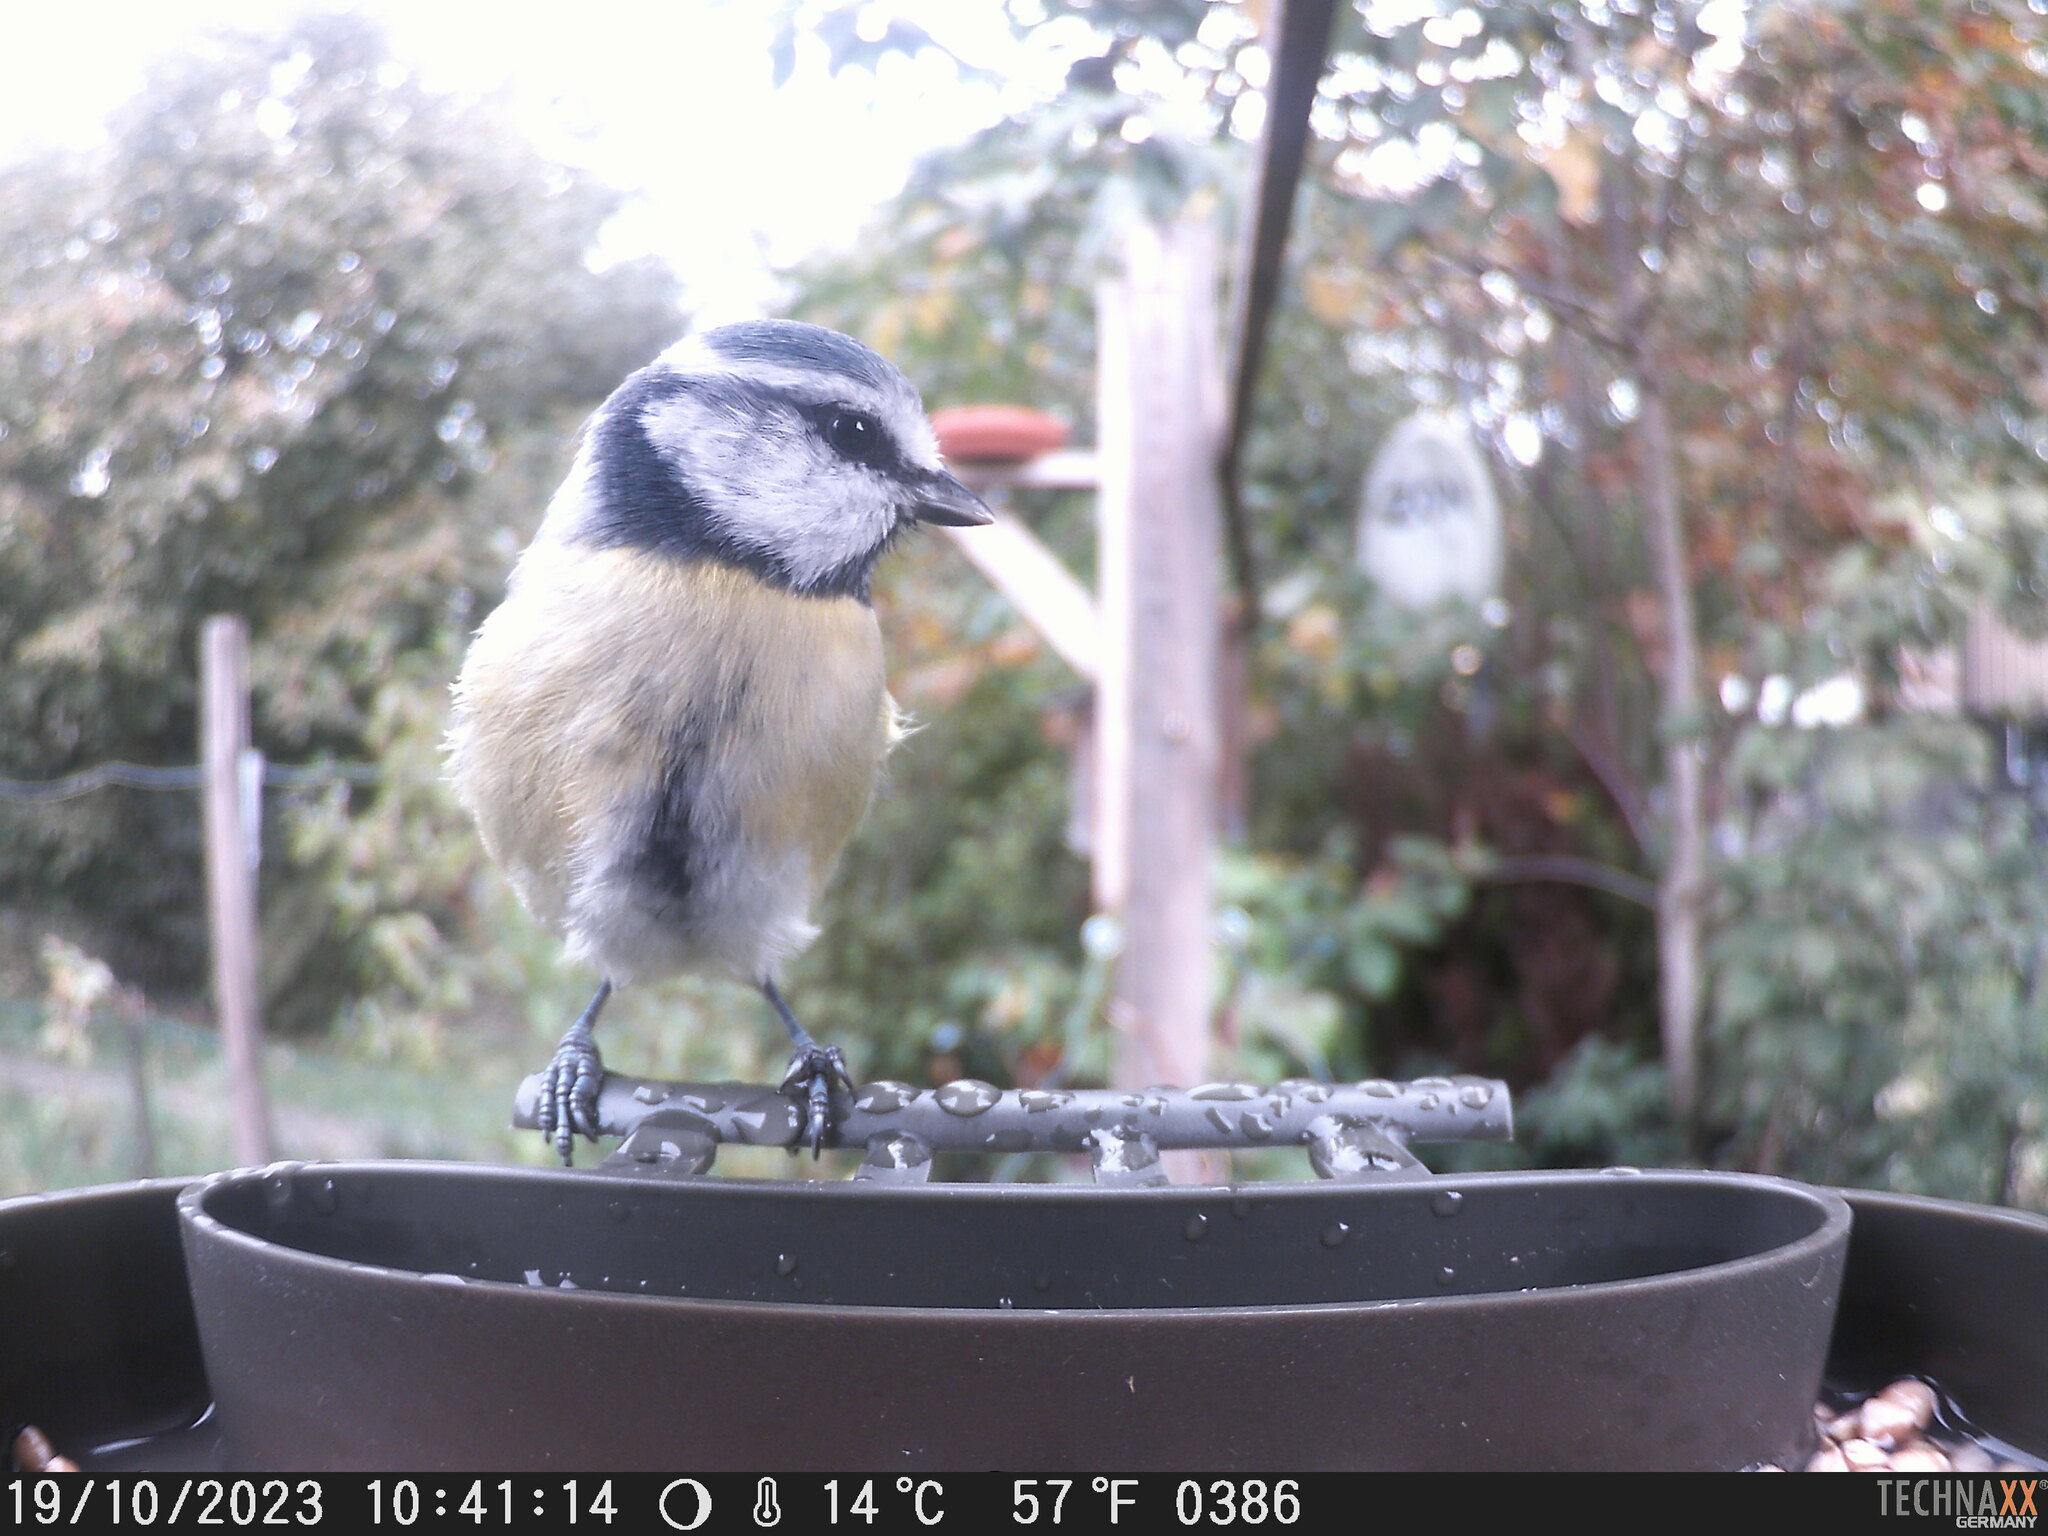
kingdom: Animalia
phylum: Chordata
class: Aves
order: Passeriformes
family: Paridae
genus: Cyanistes
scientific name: Cyanistes caeruleus
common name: Eurasian blue tit
